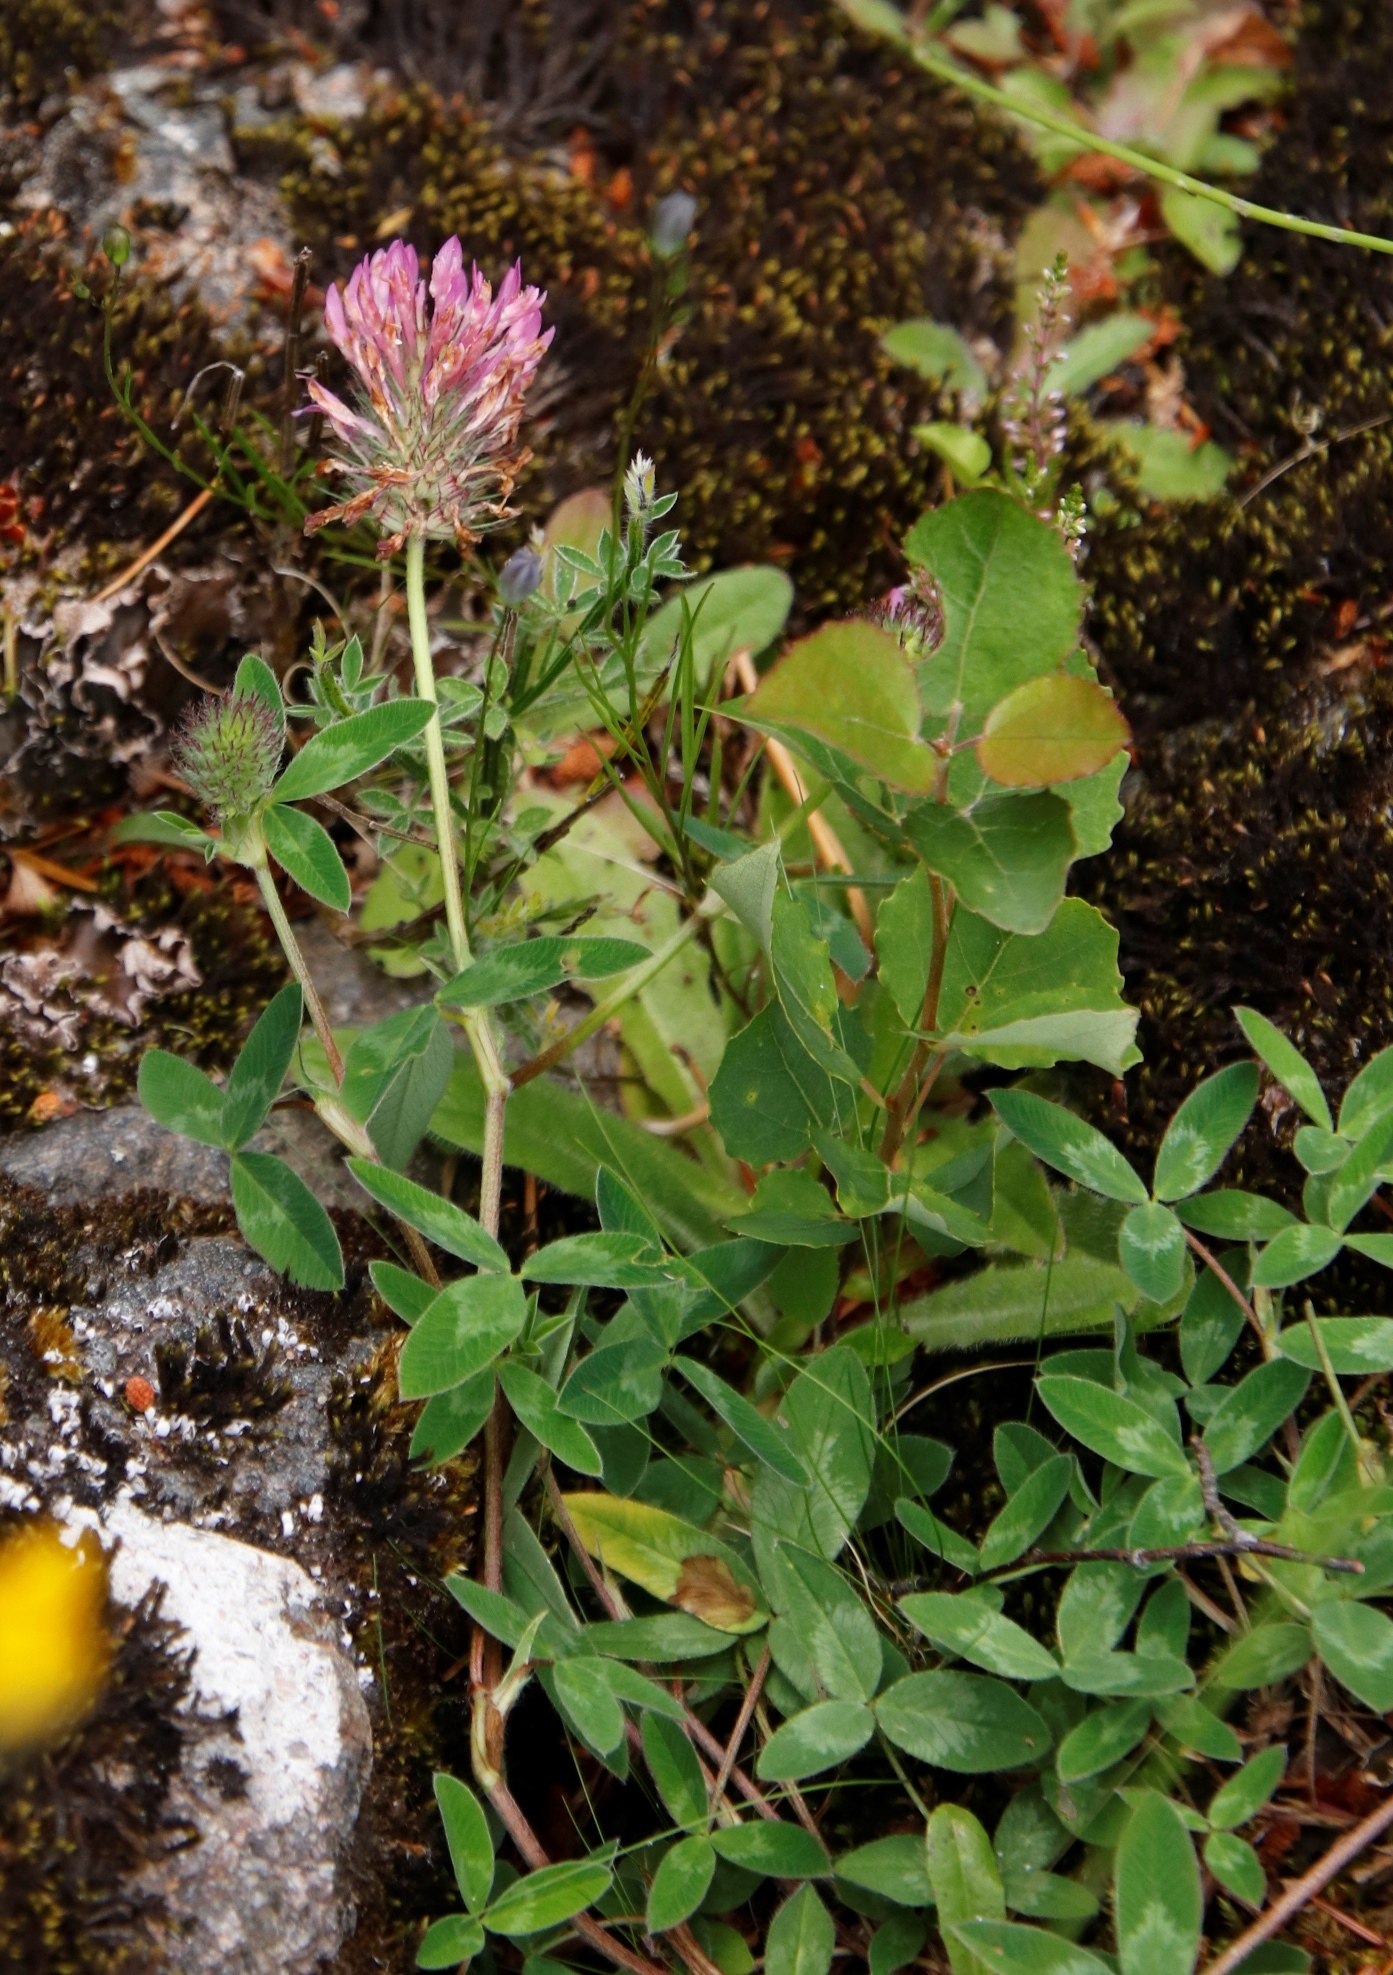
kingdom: Plantae
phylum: Tracheophyta
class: Magnoliopsida
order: Fabales
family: Fabaceae
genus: Trifolium
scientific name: Trifolium pratense
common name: Red clover
